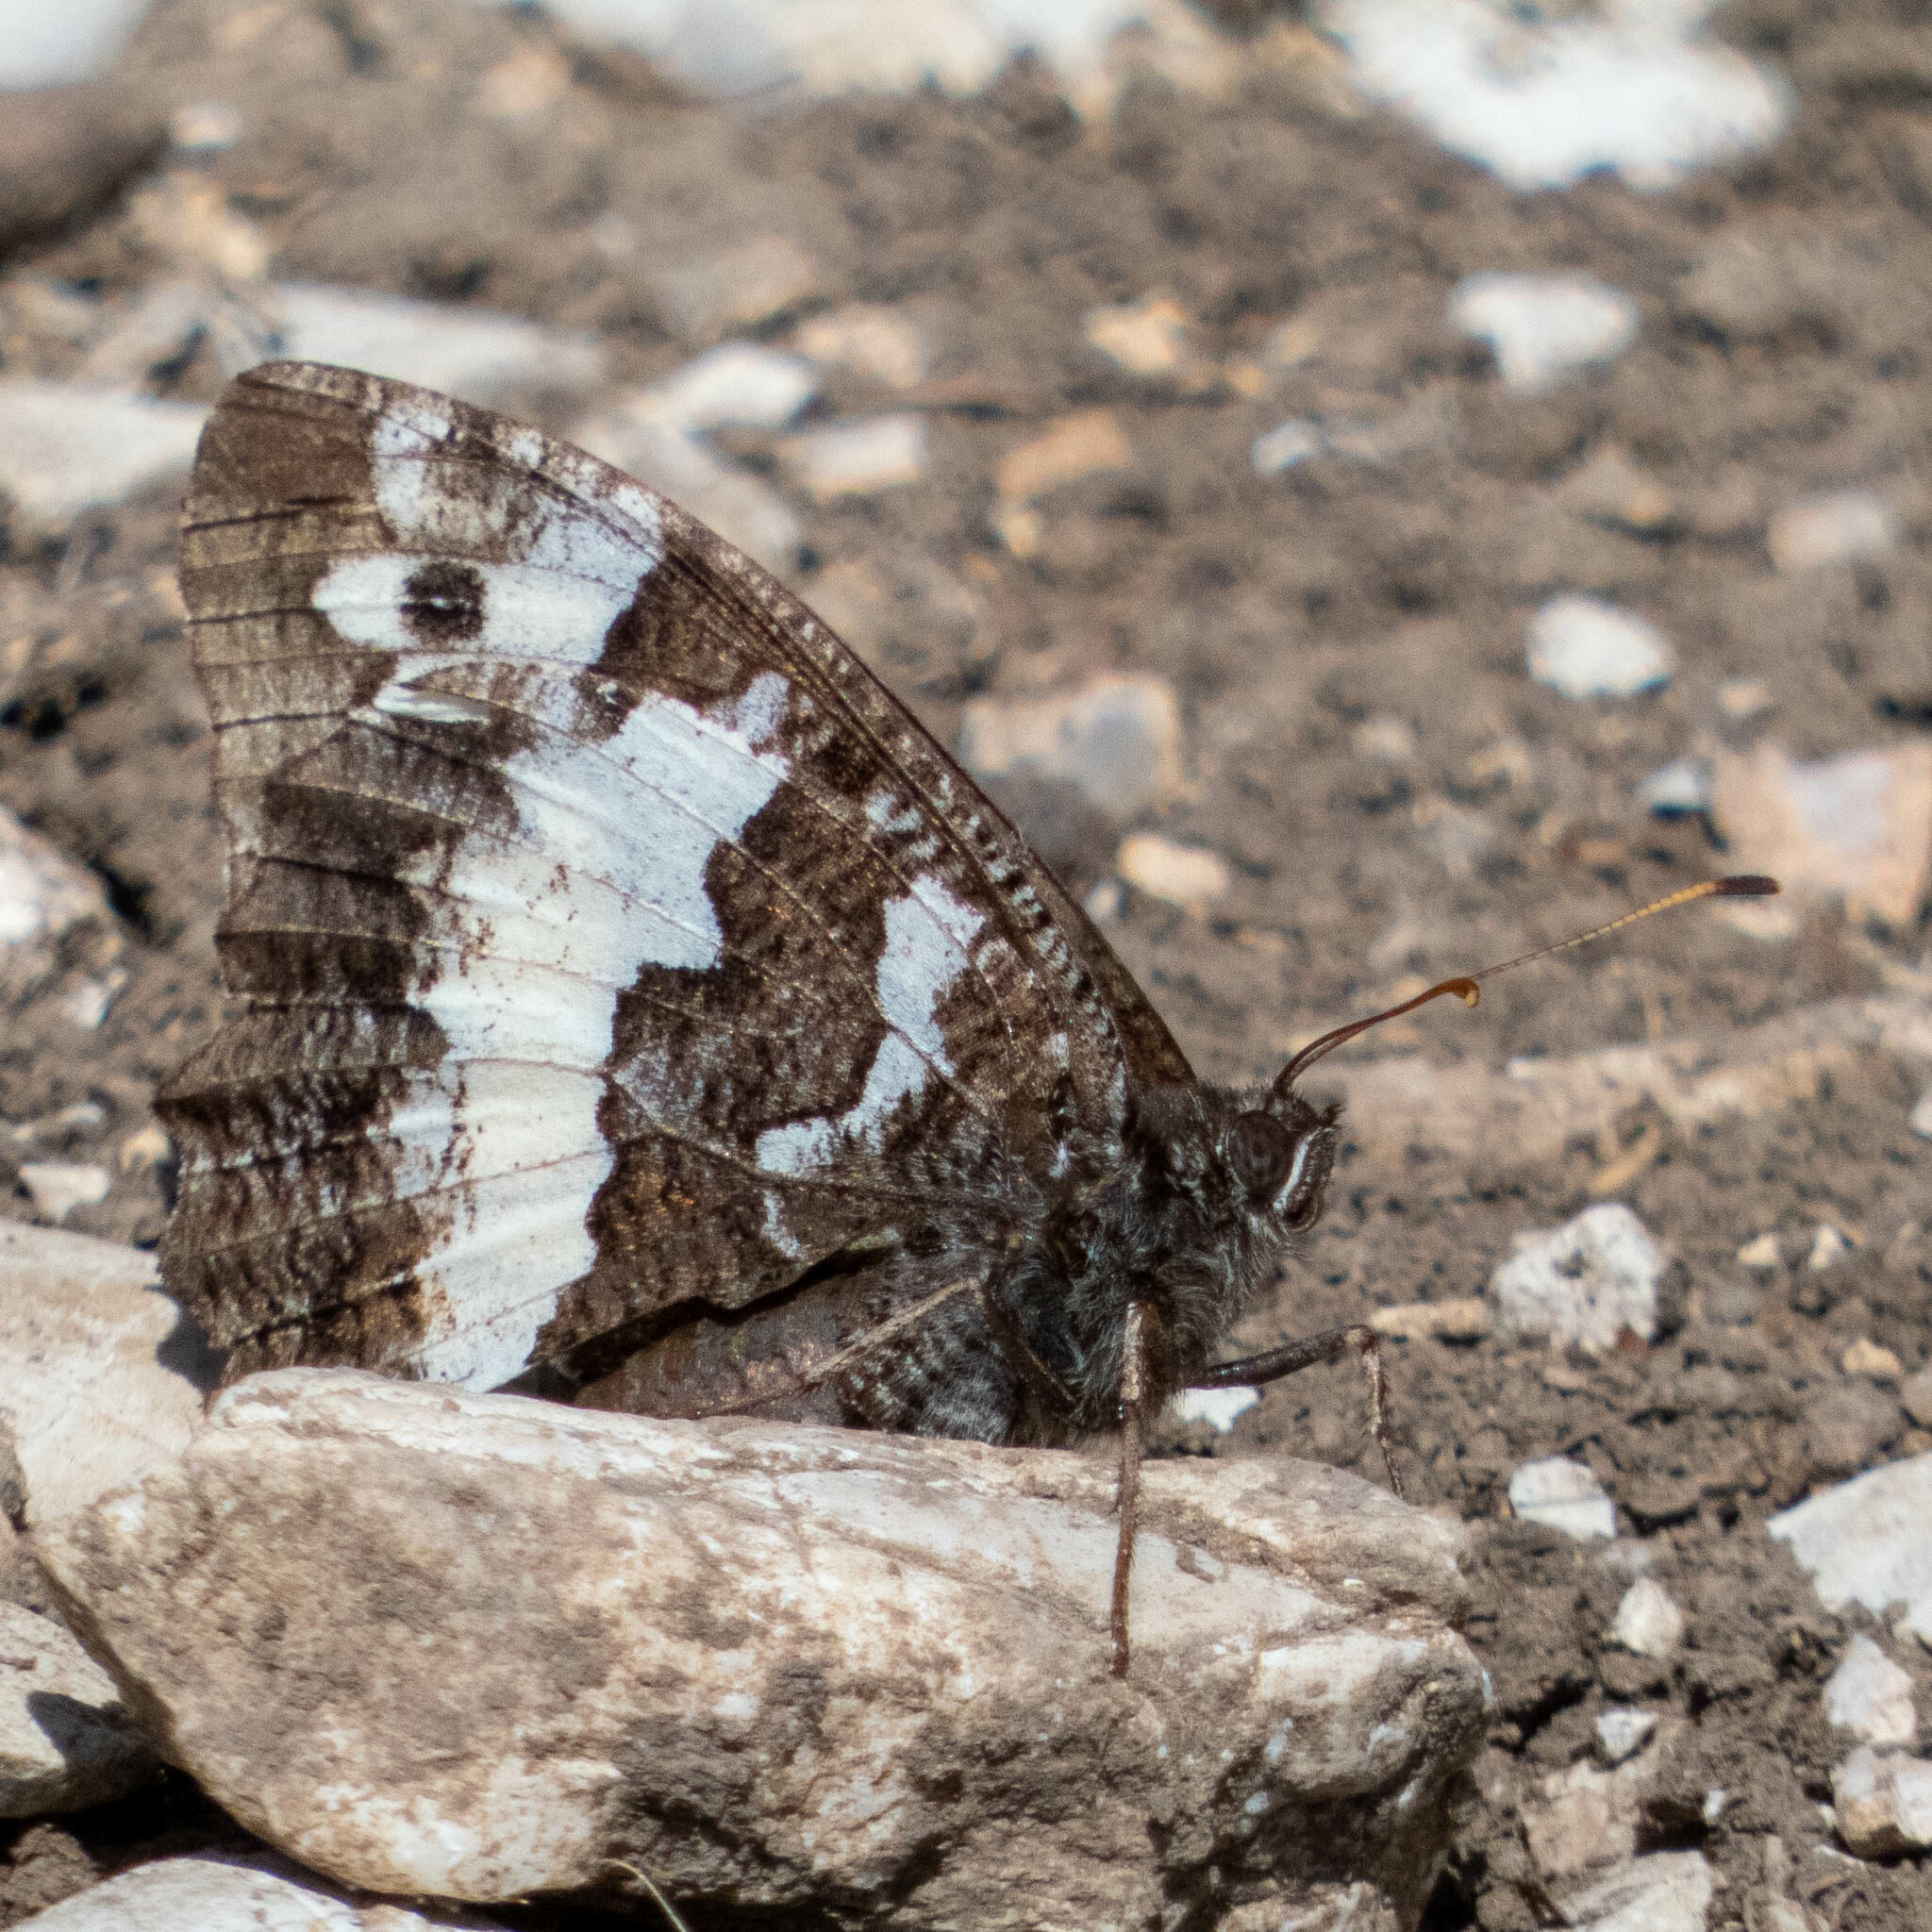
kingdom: Animalia
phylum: Arthropoda
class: Insecta
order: Lepidoptera
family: Lycaenidae
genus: Loweia
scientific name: Loweia tityrus
